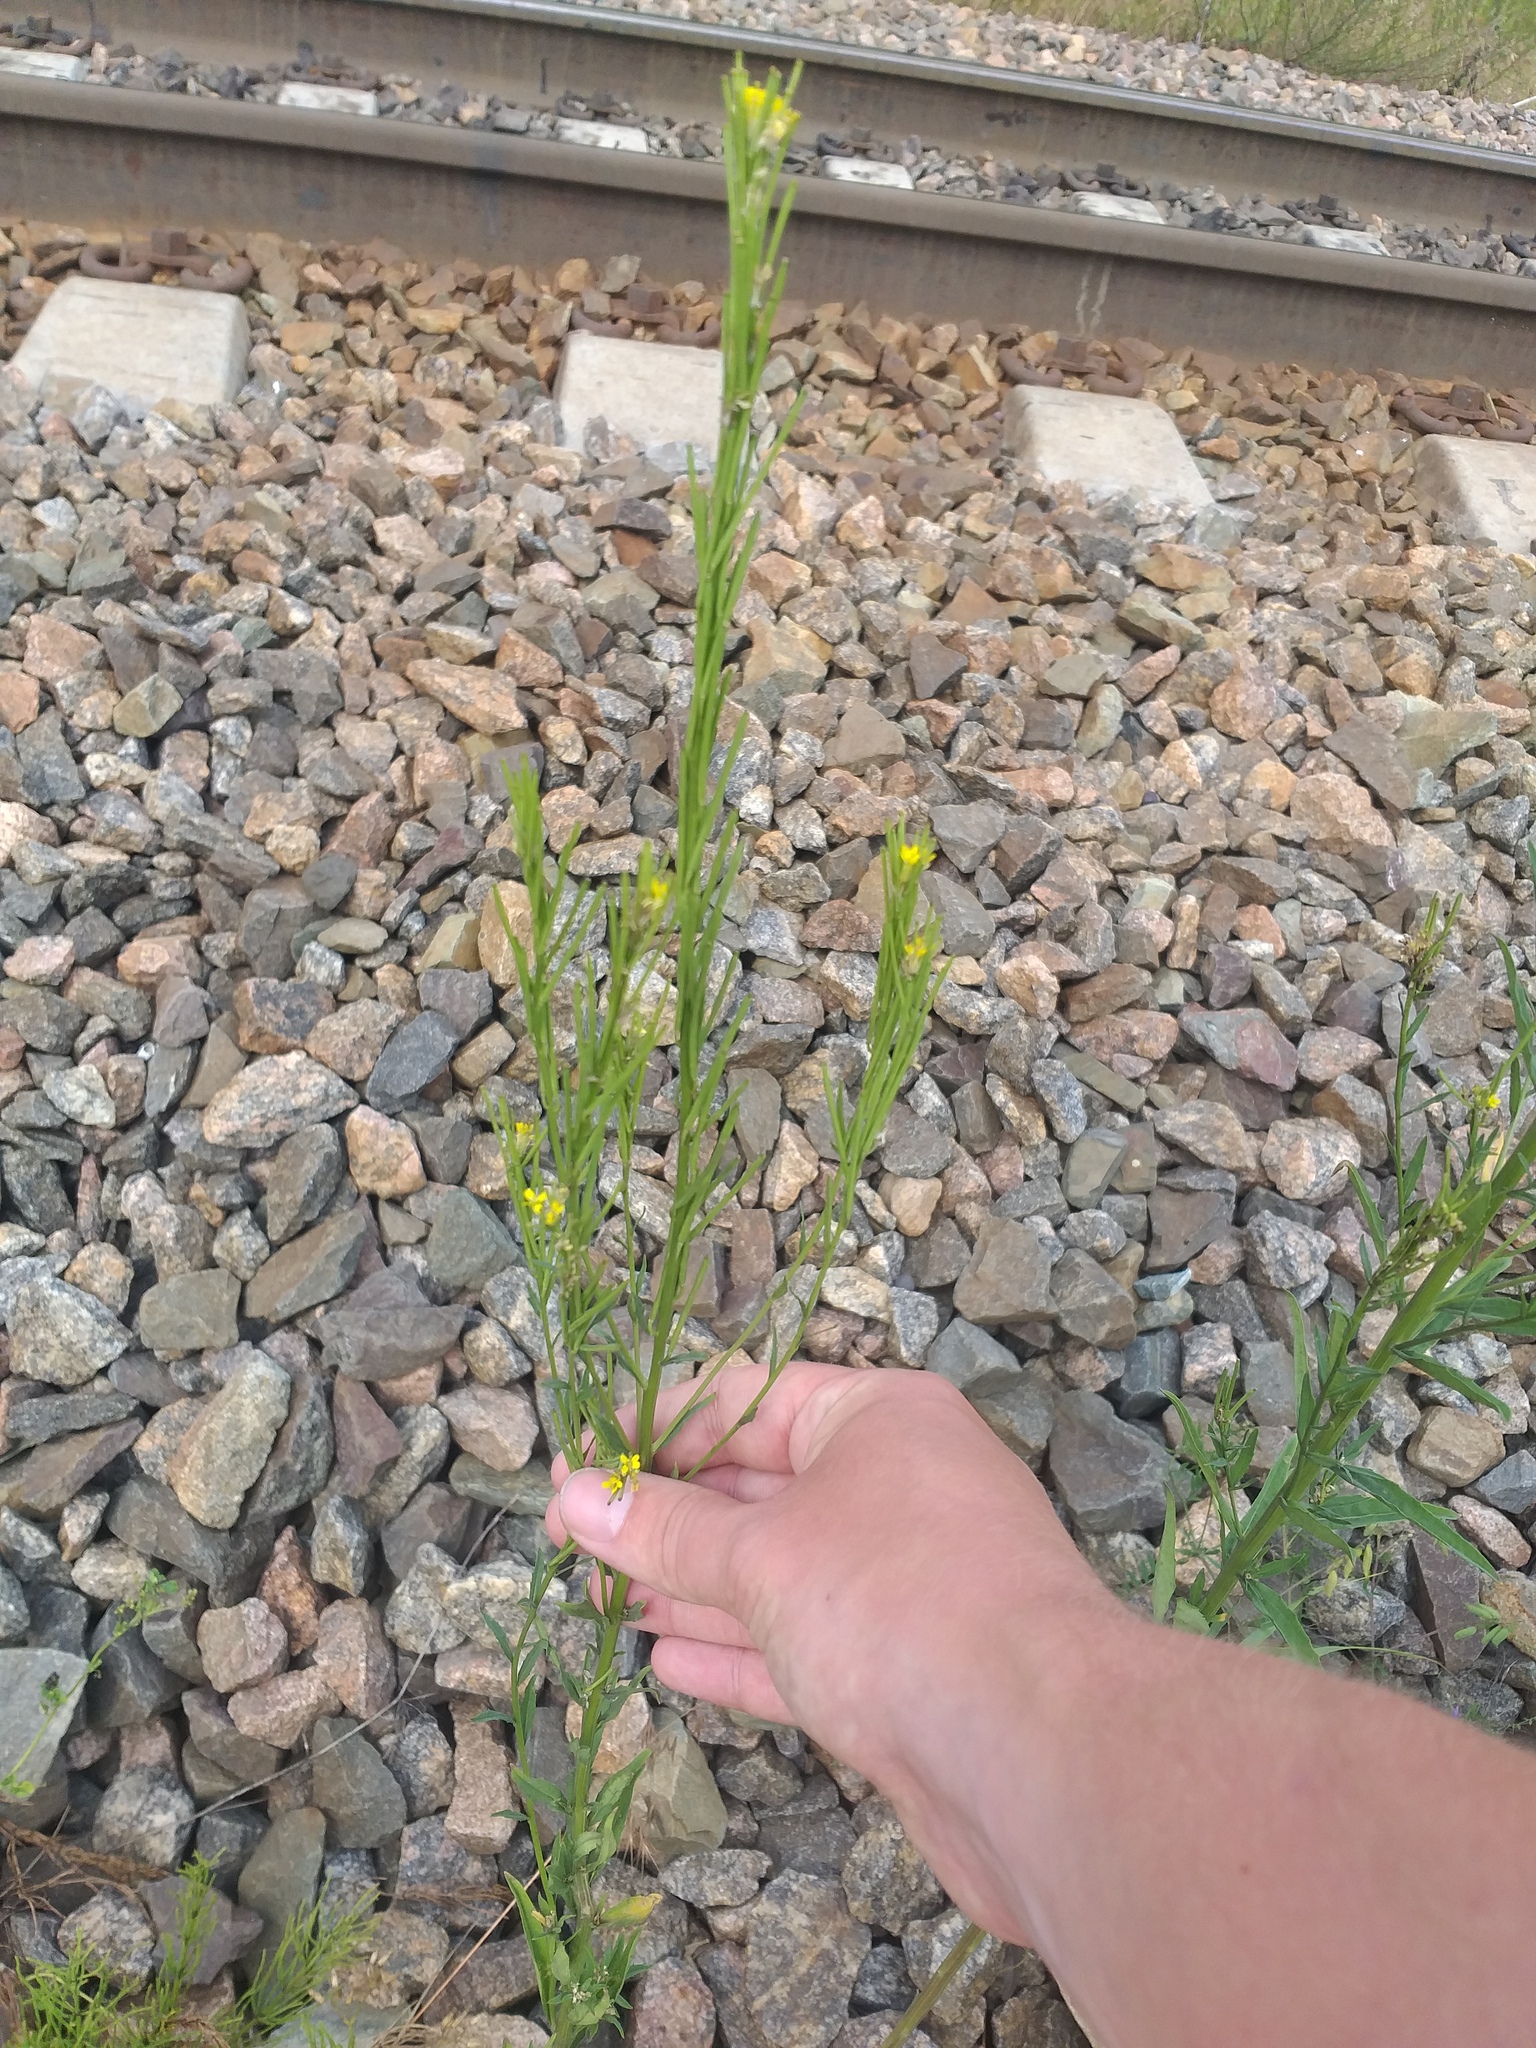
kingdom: Plantae
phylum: Tracheophyta
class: Magnoliopsida
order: Brassicales
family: Brassicaceae
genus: Erysimum
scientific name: Erysimum hieraciifolium
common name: European wallflower
